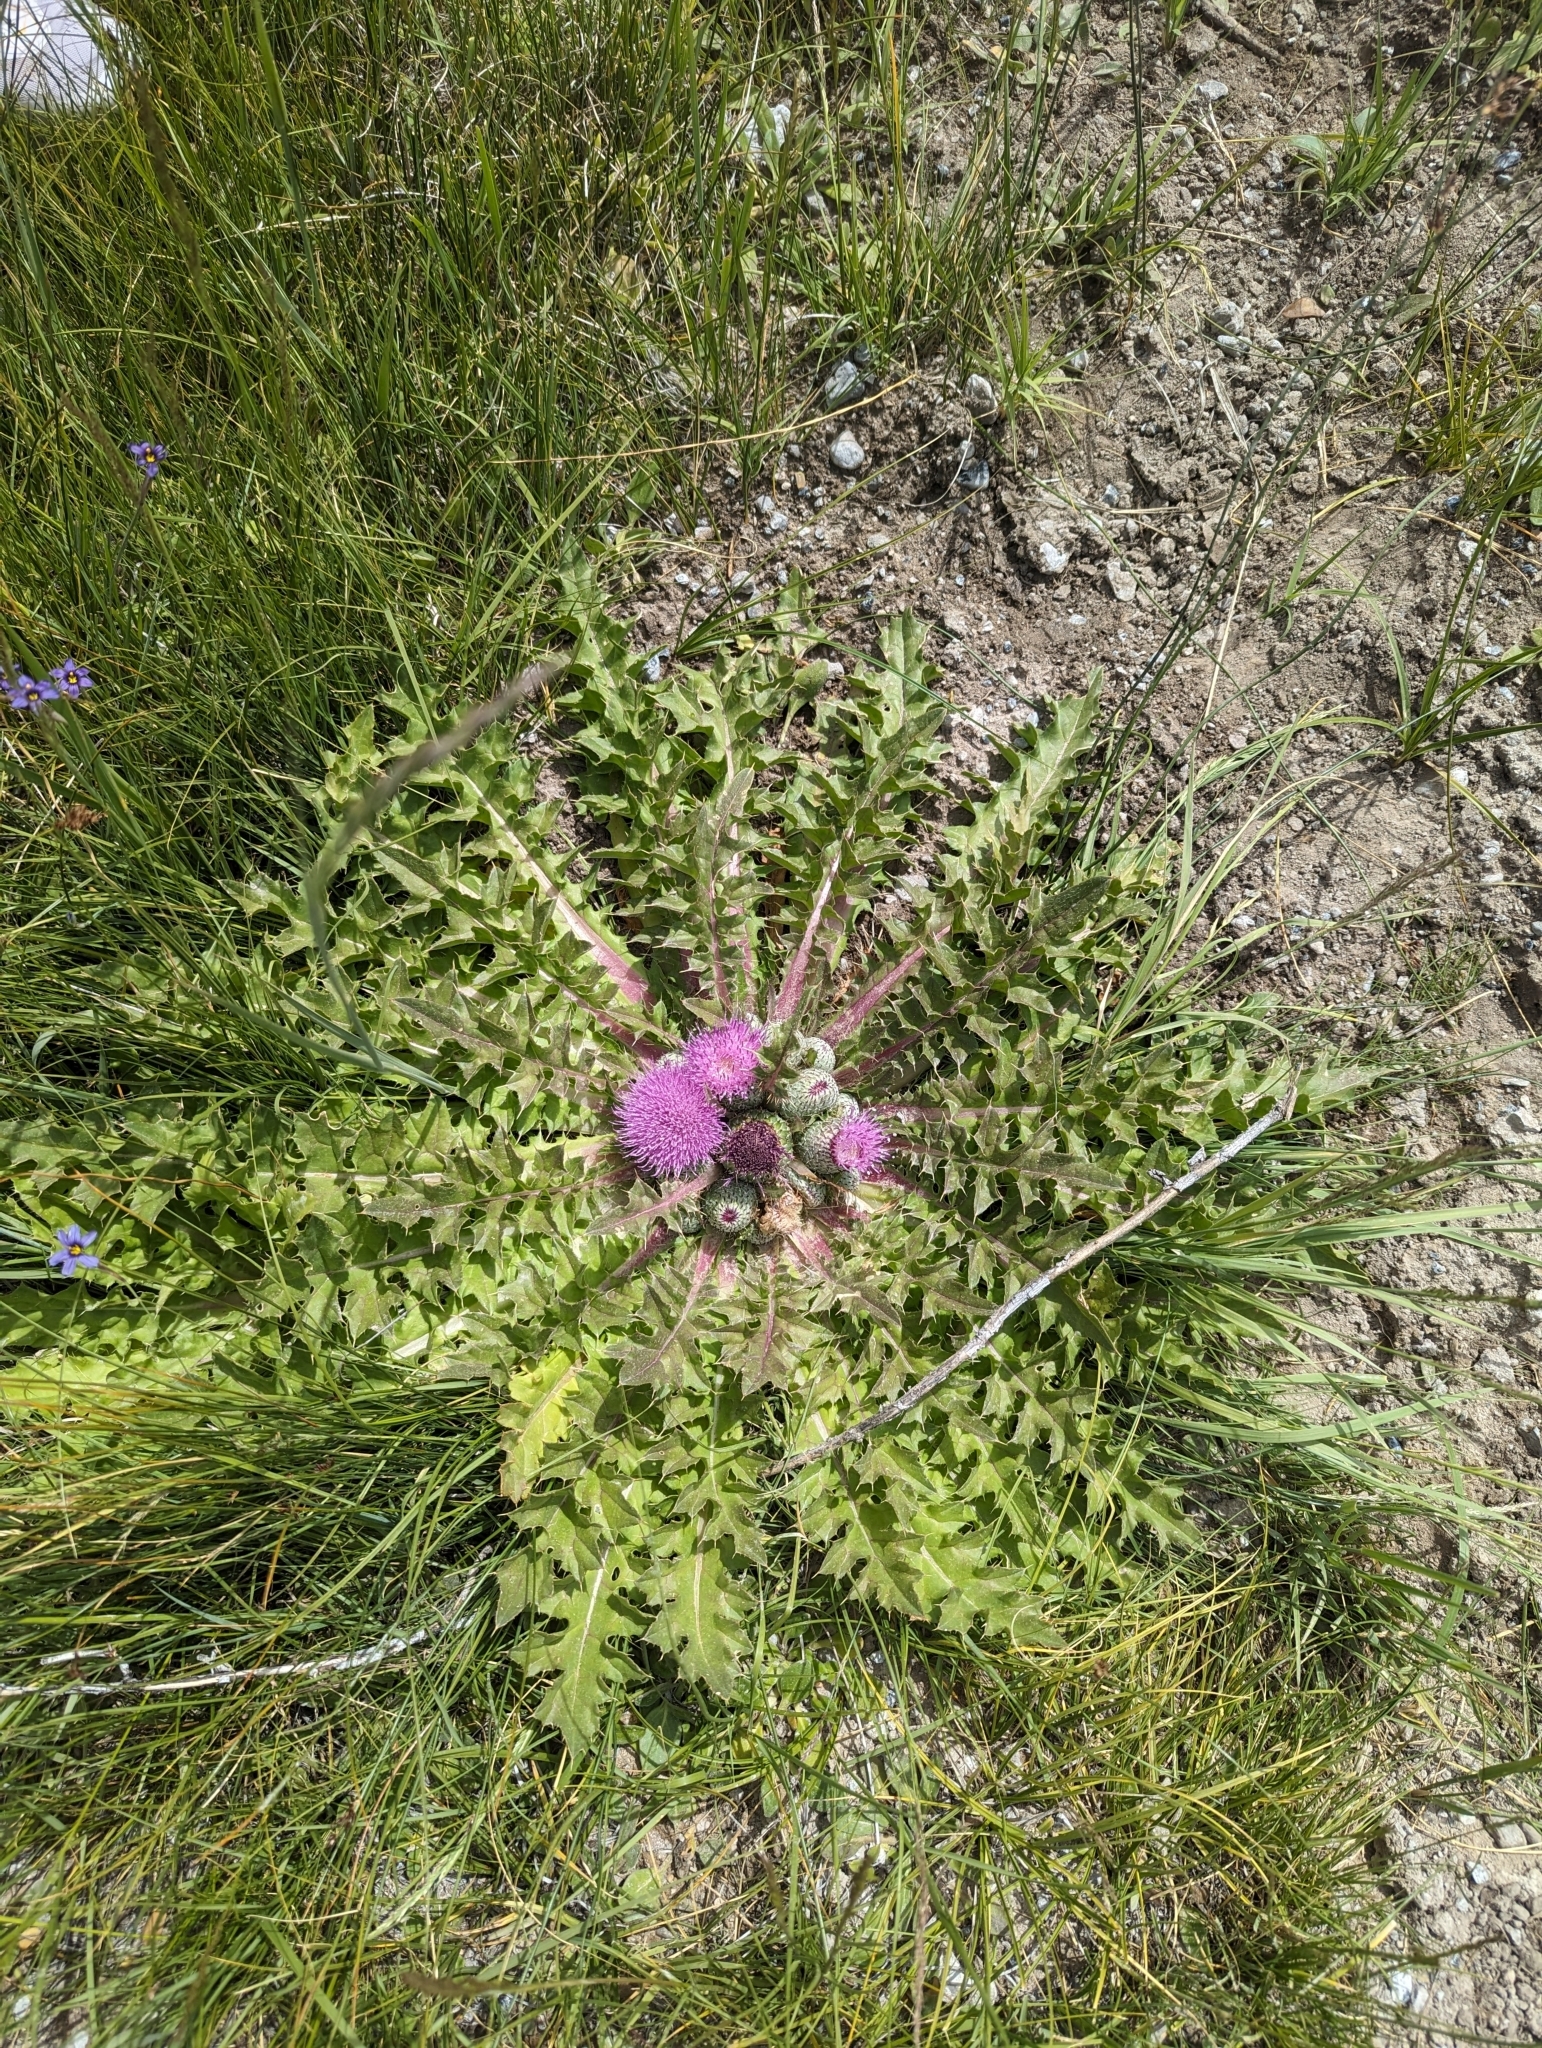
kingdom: Plantae
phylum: Tracheophyta
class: Magnoliopsida
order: Asterales
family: Asteraceae
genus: Cirsium
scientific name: Cirsium scariosum
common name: Meadow thistle
